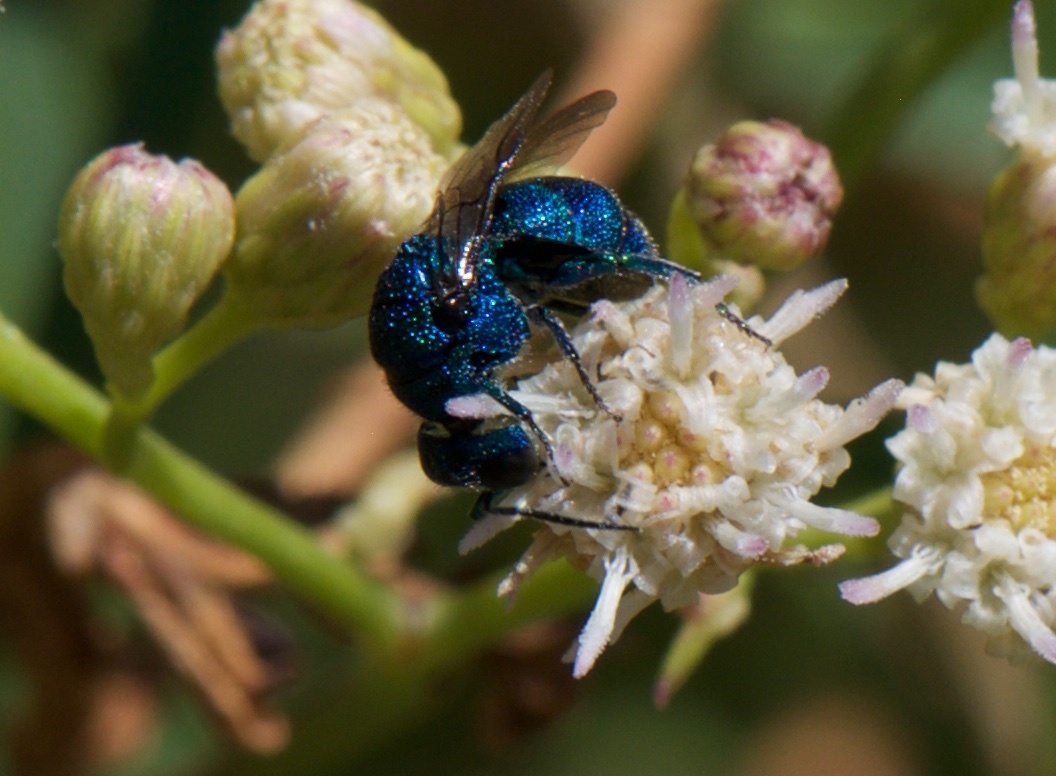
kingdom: Animalia
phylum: Arthropoda
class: Insecta
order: Hymenoptera
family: Chrysididae
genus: Holopyga
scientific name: Holopyga
